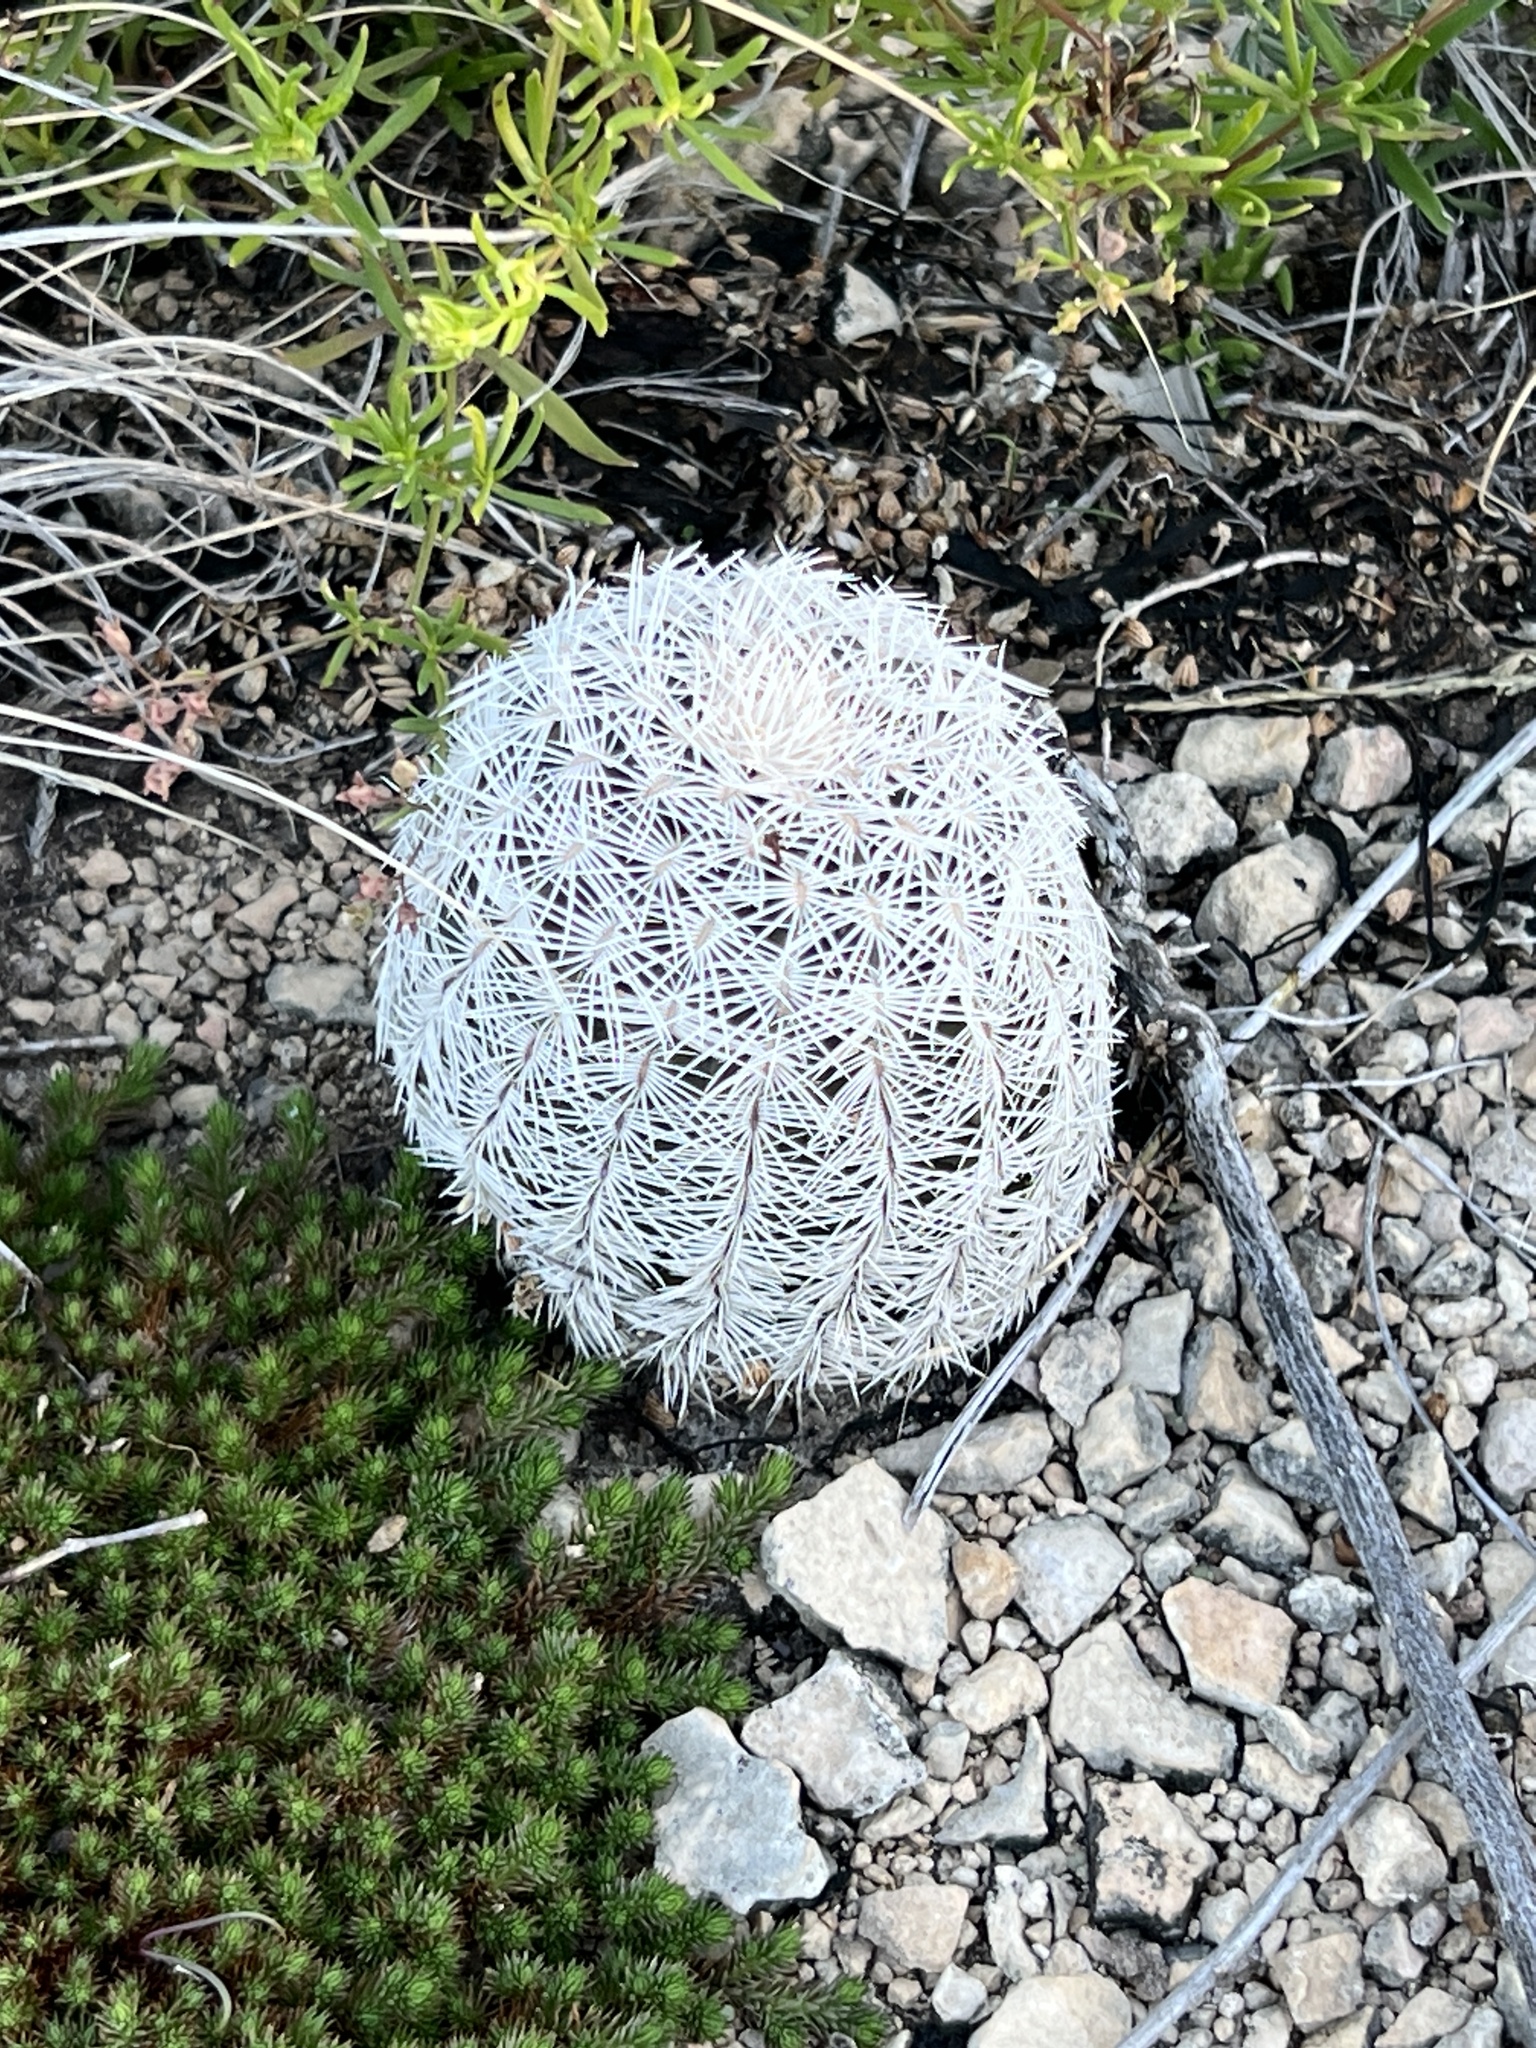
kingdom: Plantae
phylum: Tracheophyta
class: Magnoliopsida
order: Caryophyllales
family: Cactaceae
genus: Echinocereus
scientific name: Echinocereus reichenbachii
